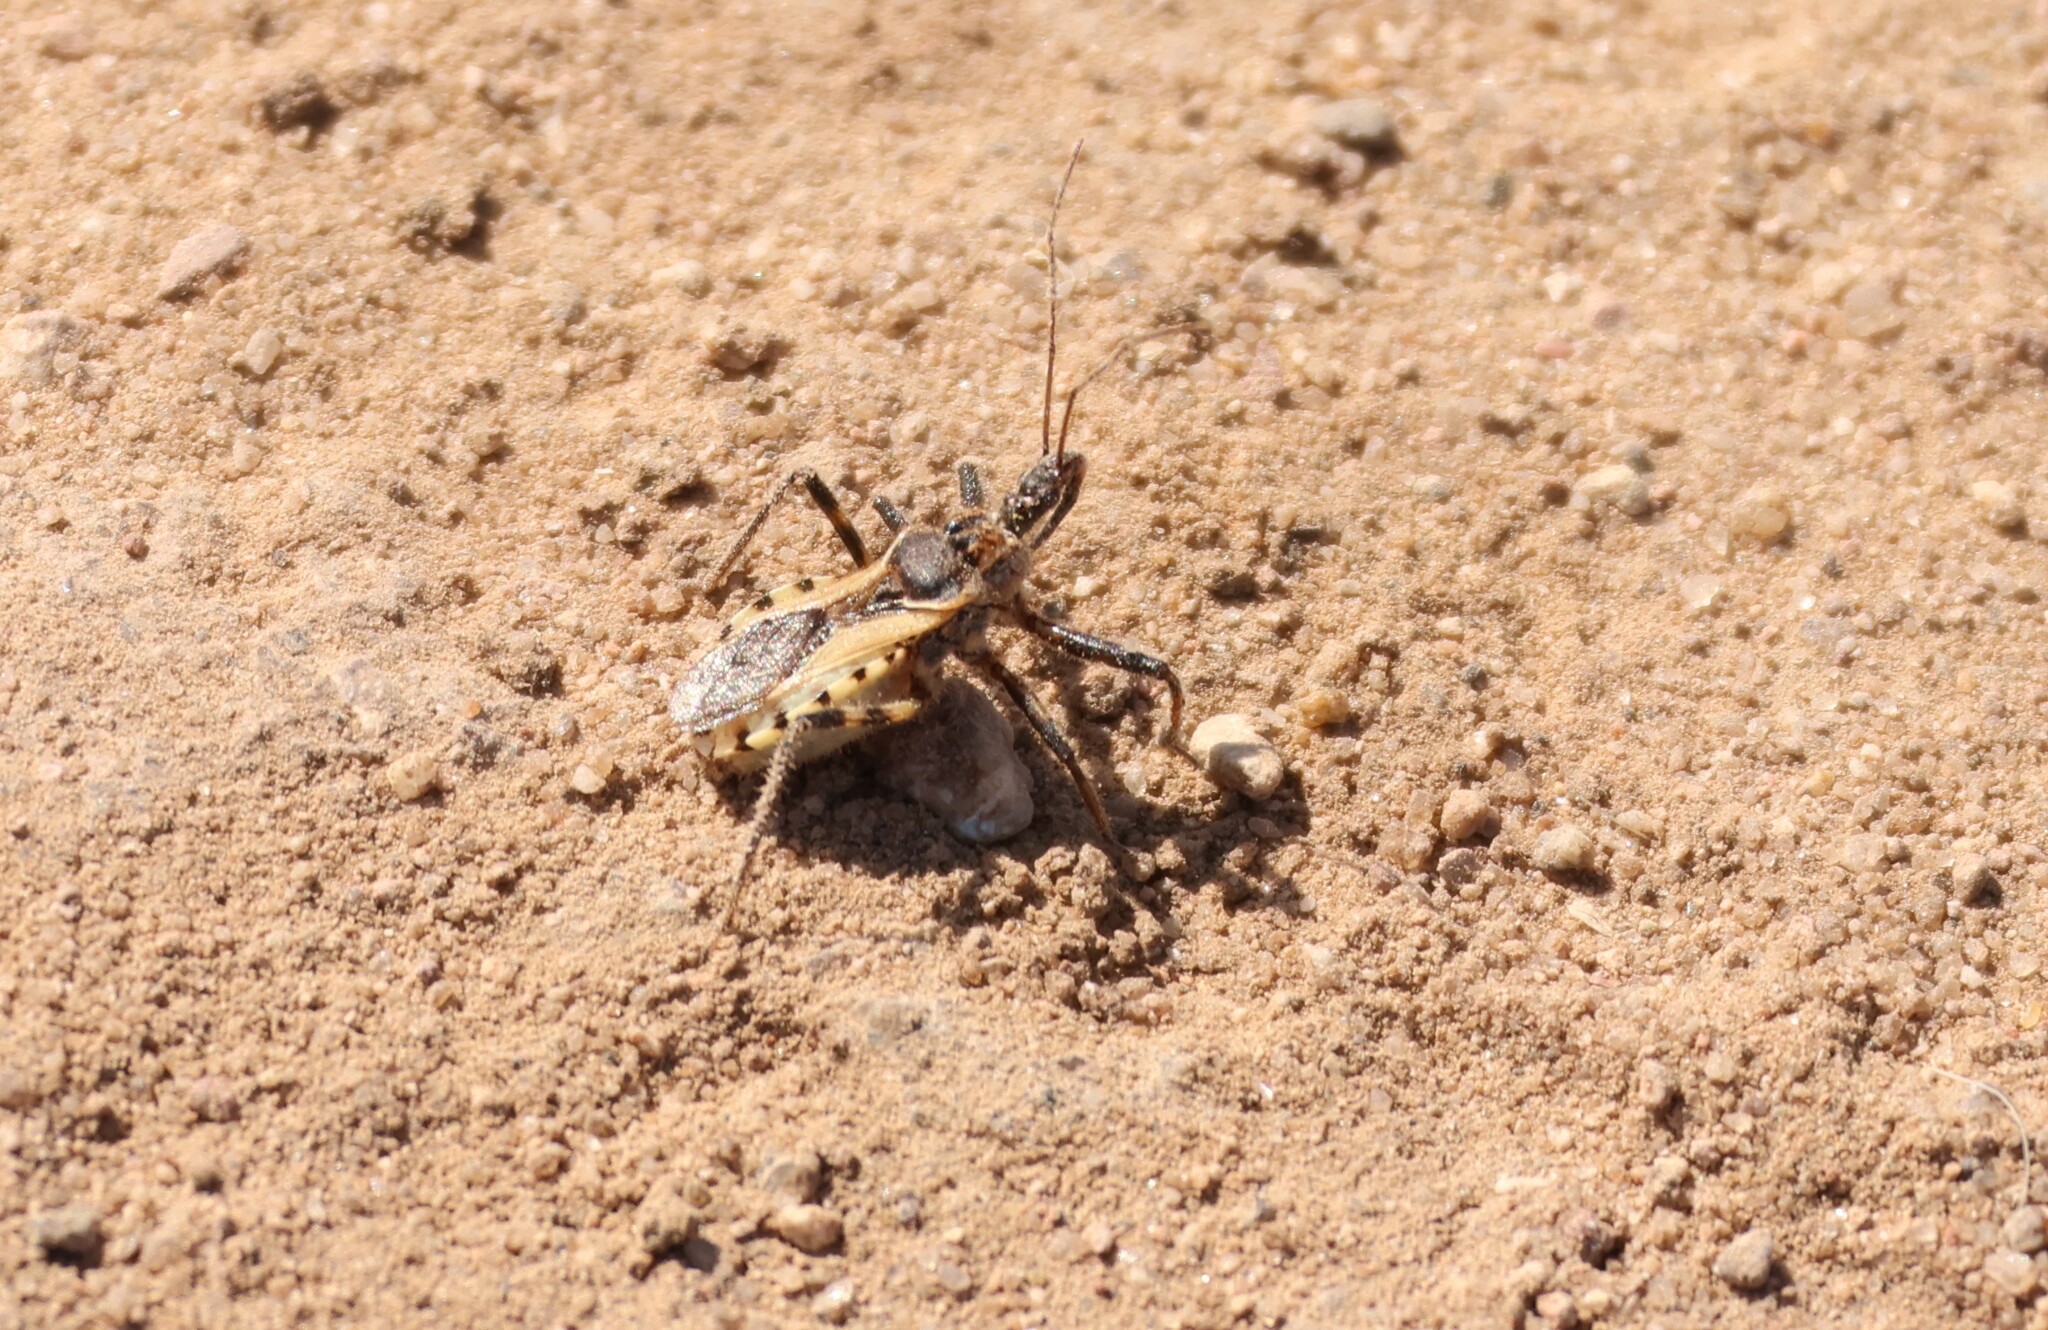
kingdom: Animalia
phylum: Arthropoda
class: Insecta
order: Hemiptera
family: Reduviidae
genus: Rhynocoris
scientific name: Rhynocoris ventralis
